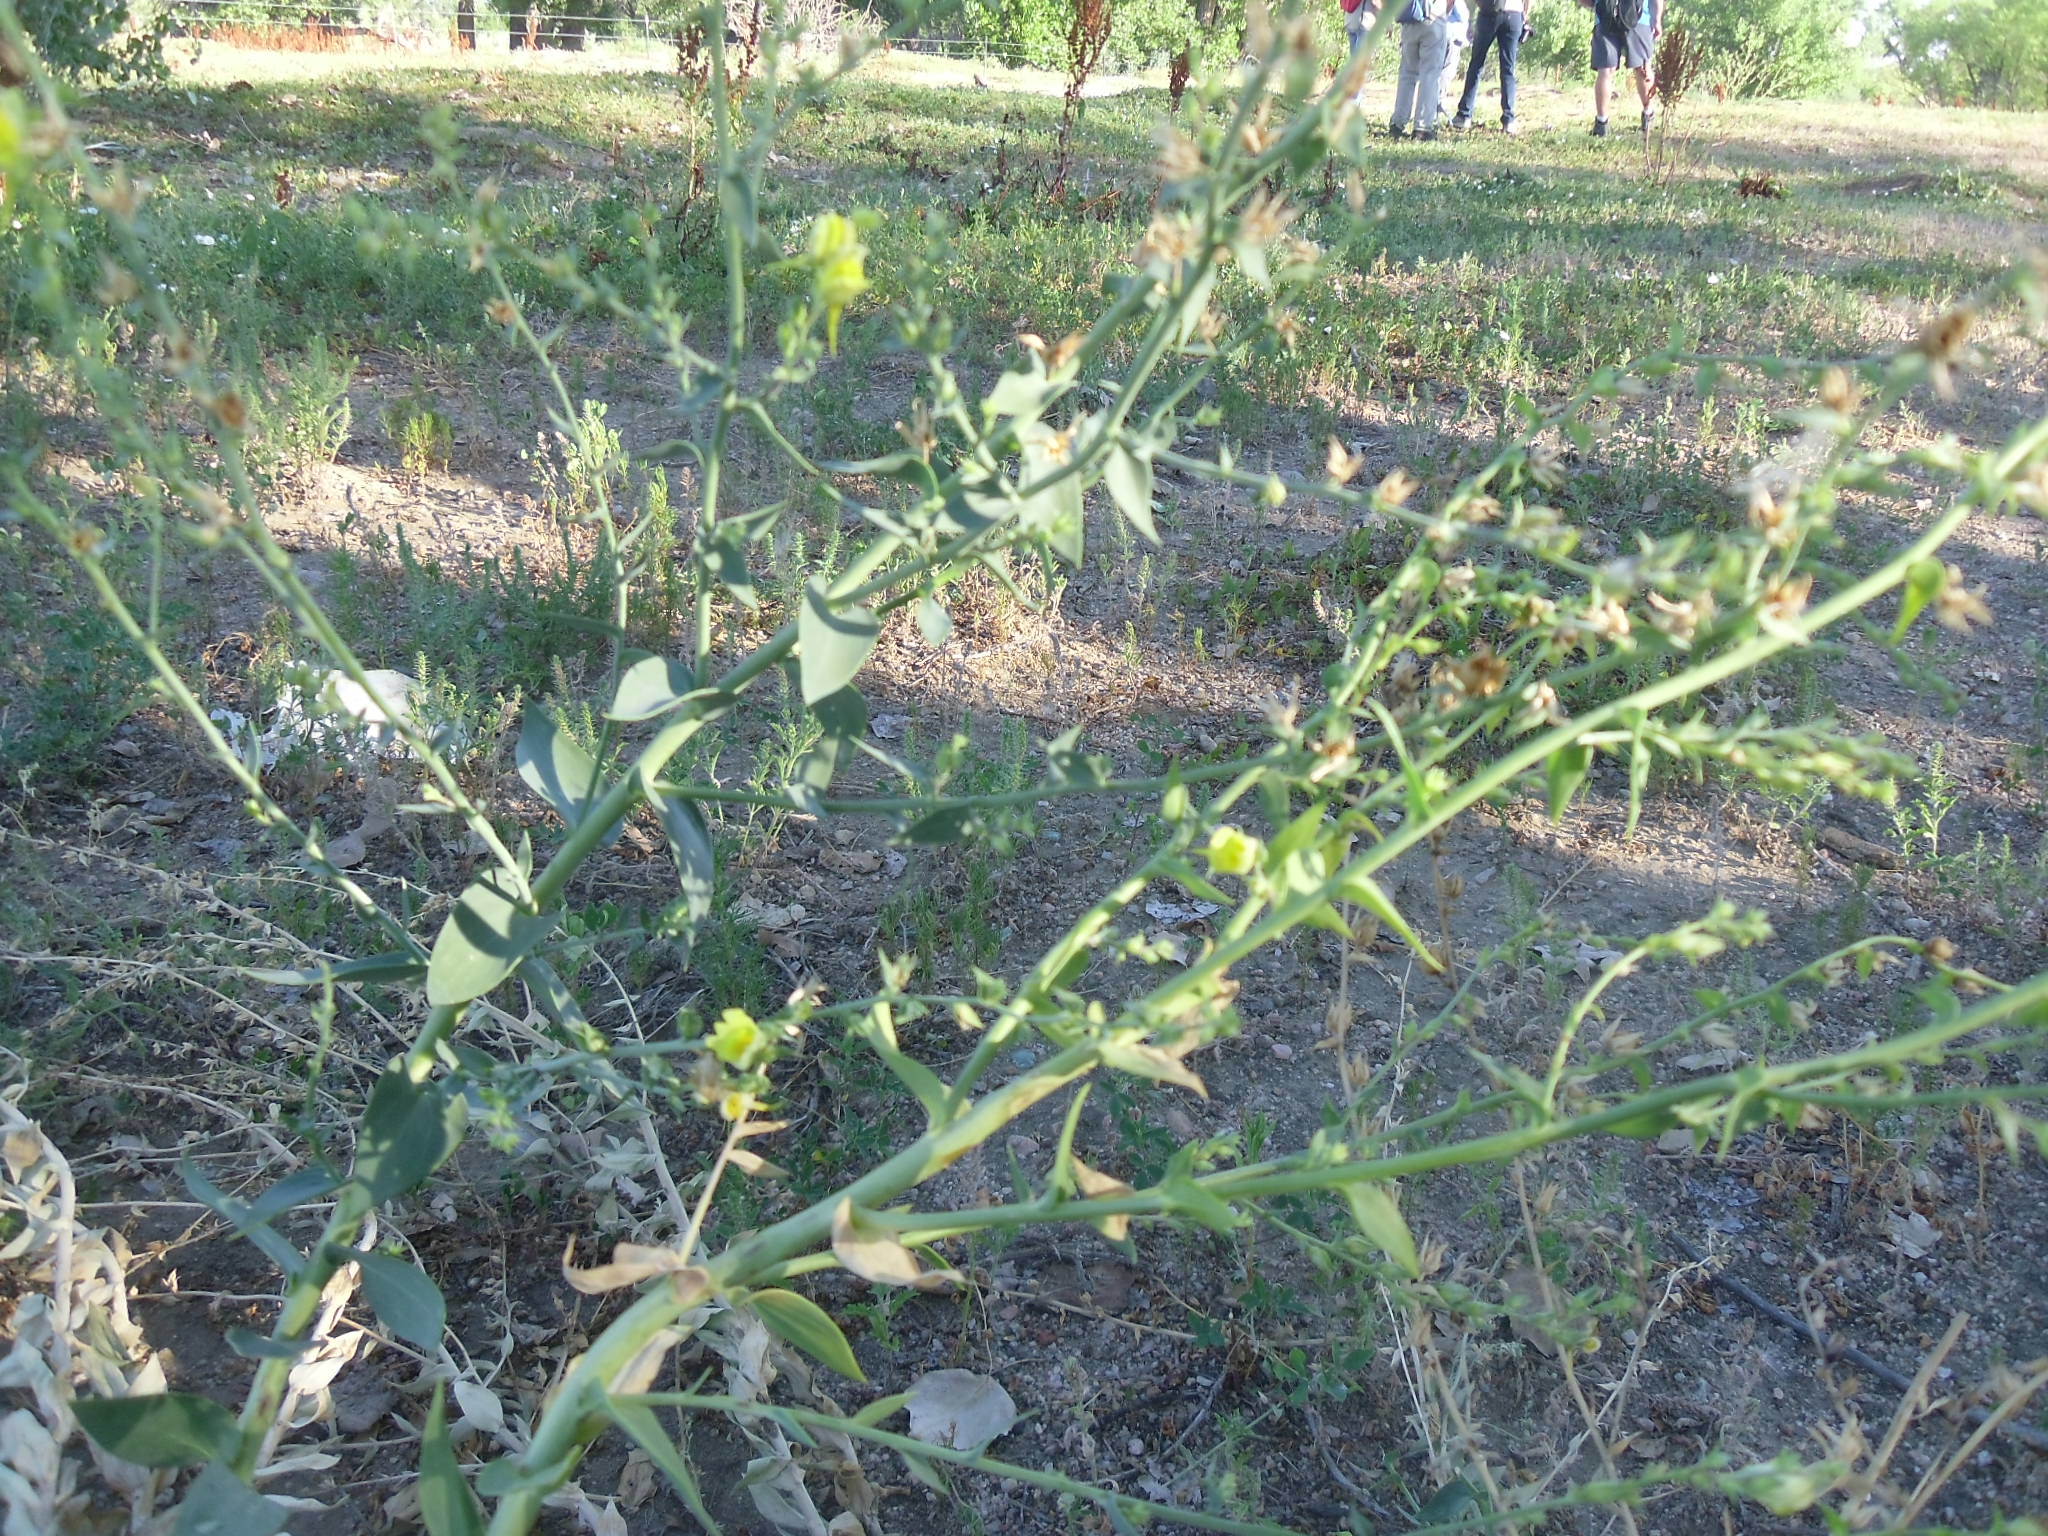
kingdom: Plantae
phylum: Tracheophyta
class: Magnoliopsida
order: Lamiales
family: Plantaginaceae
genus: Linaria
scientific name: Linaria dalmatica
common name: Dalmatian toadflax
